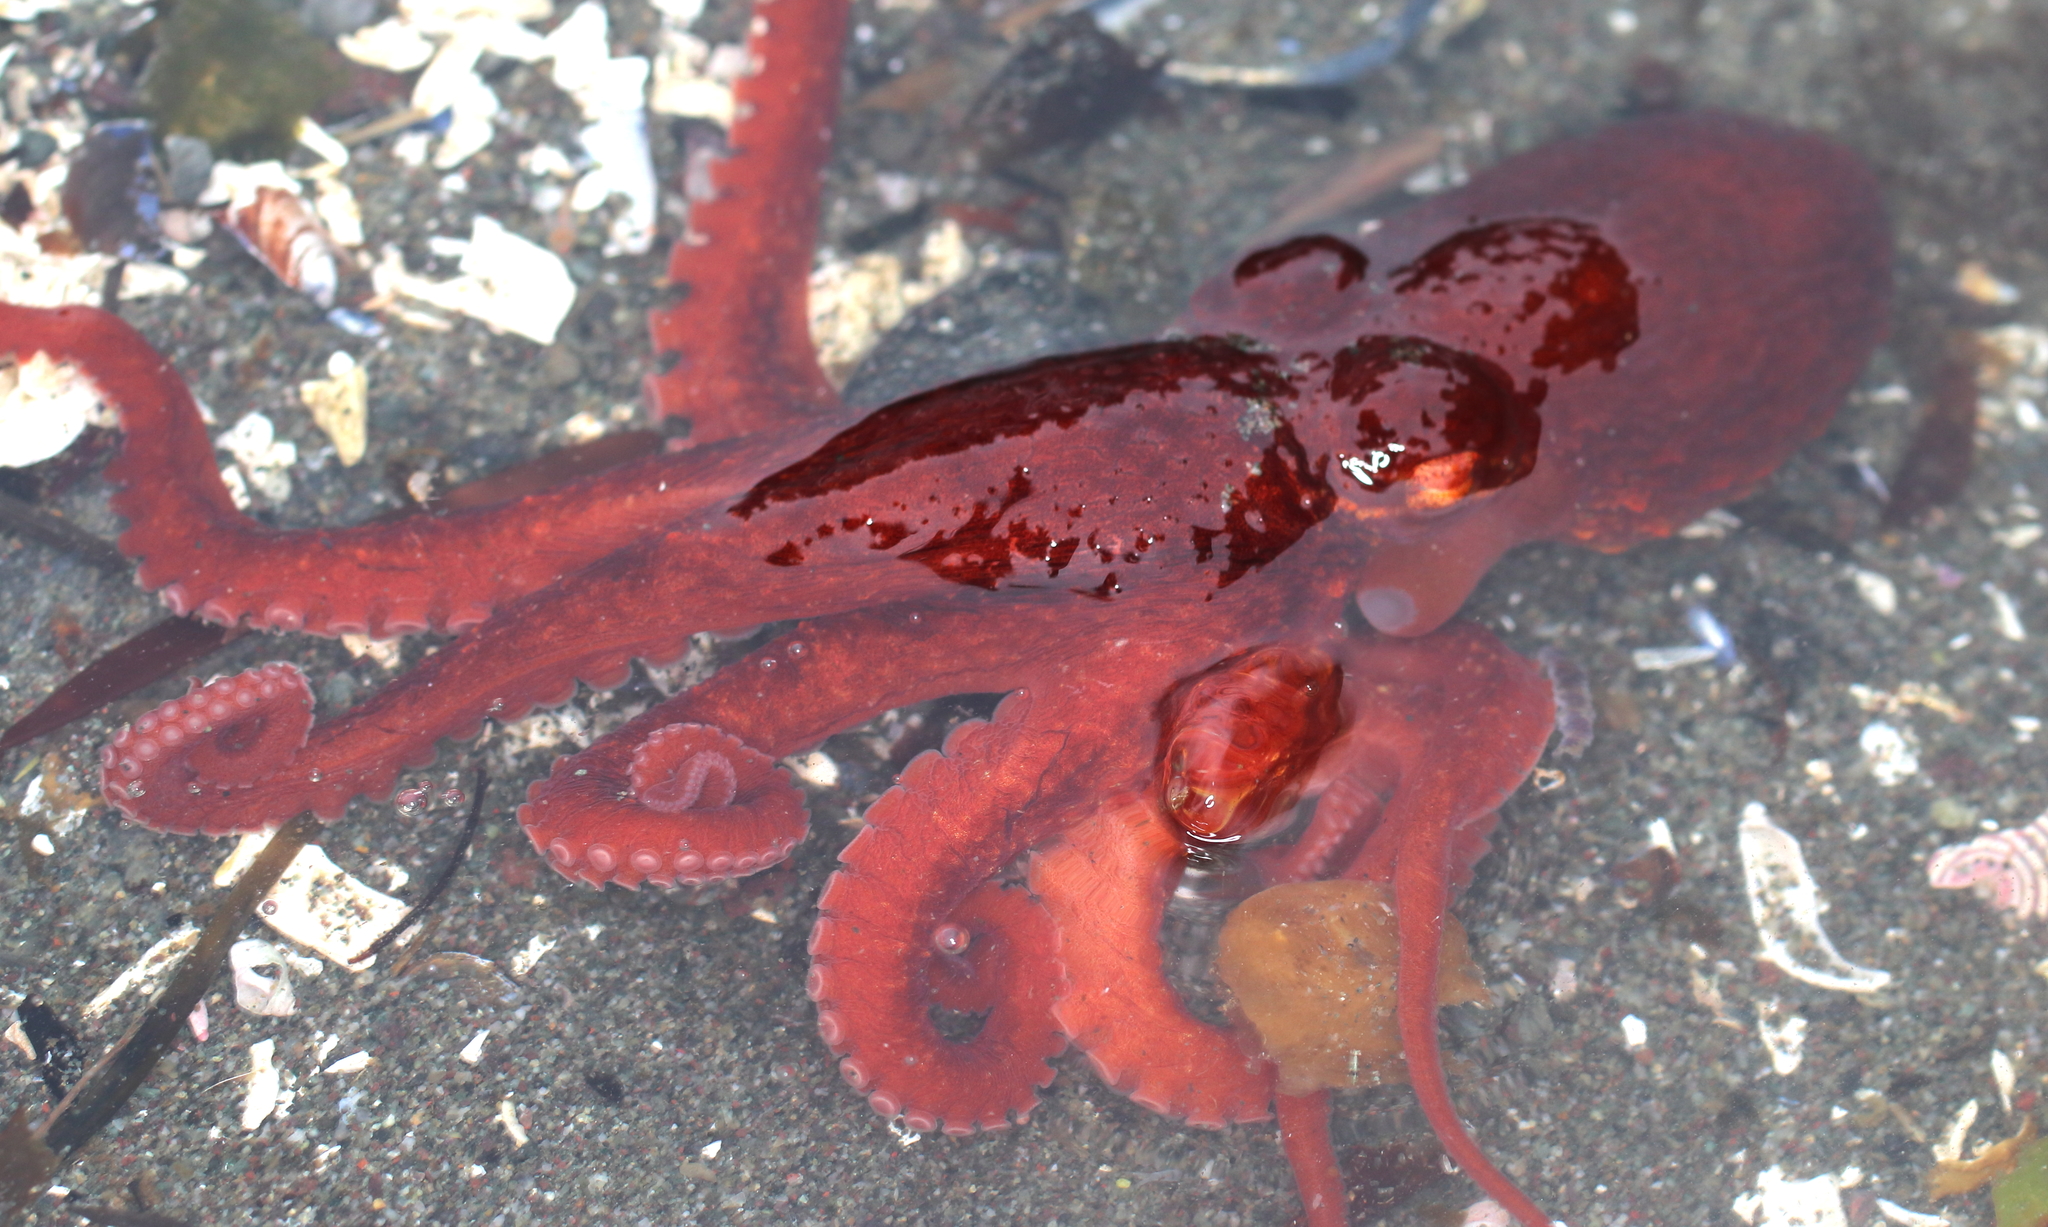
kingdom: Animalia
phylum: Mollusca
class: Cephalopoda
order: Octopoda
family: Enteroctopodidae
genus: Enteroctopus
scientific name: Enteroctopus dofleini
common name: Giant north pacific octopus
